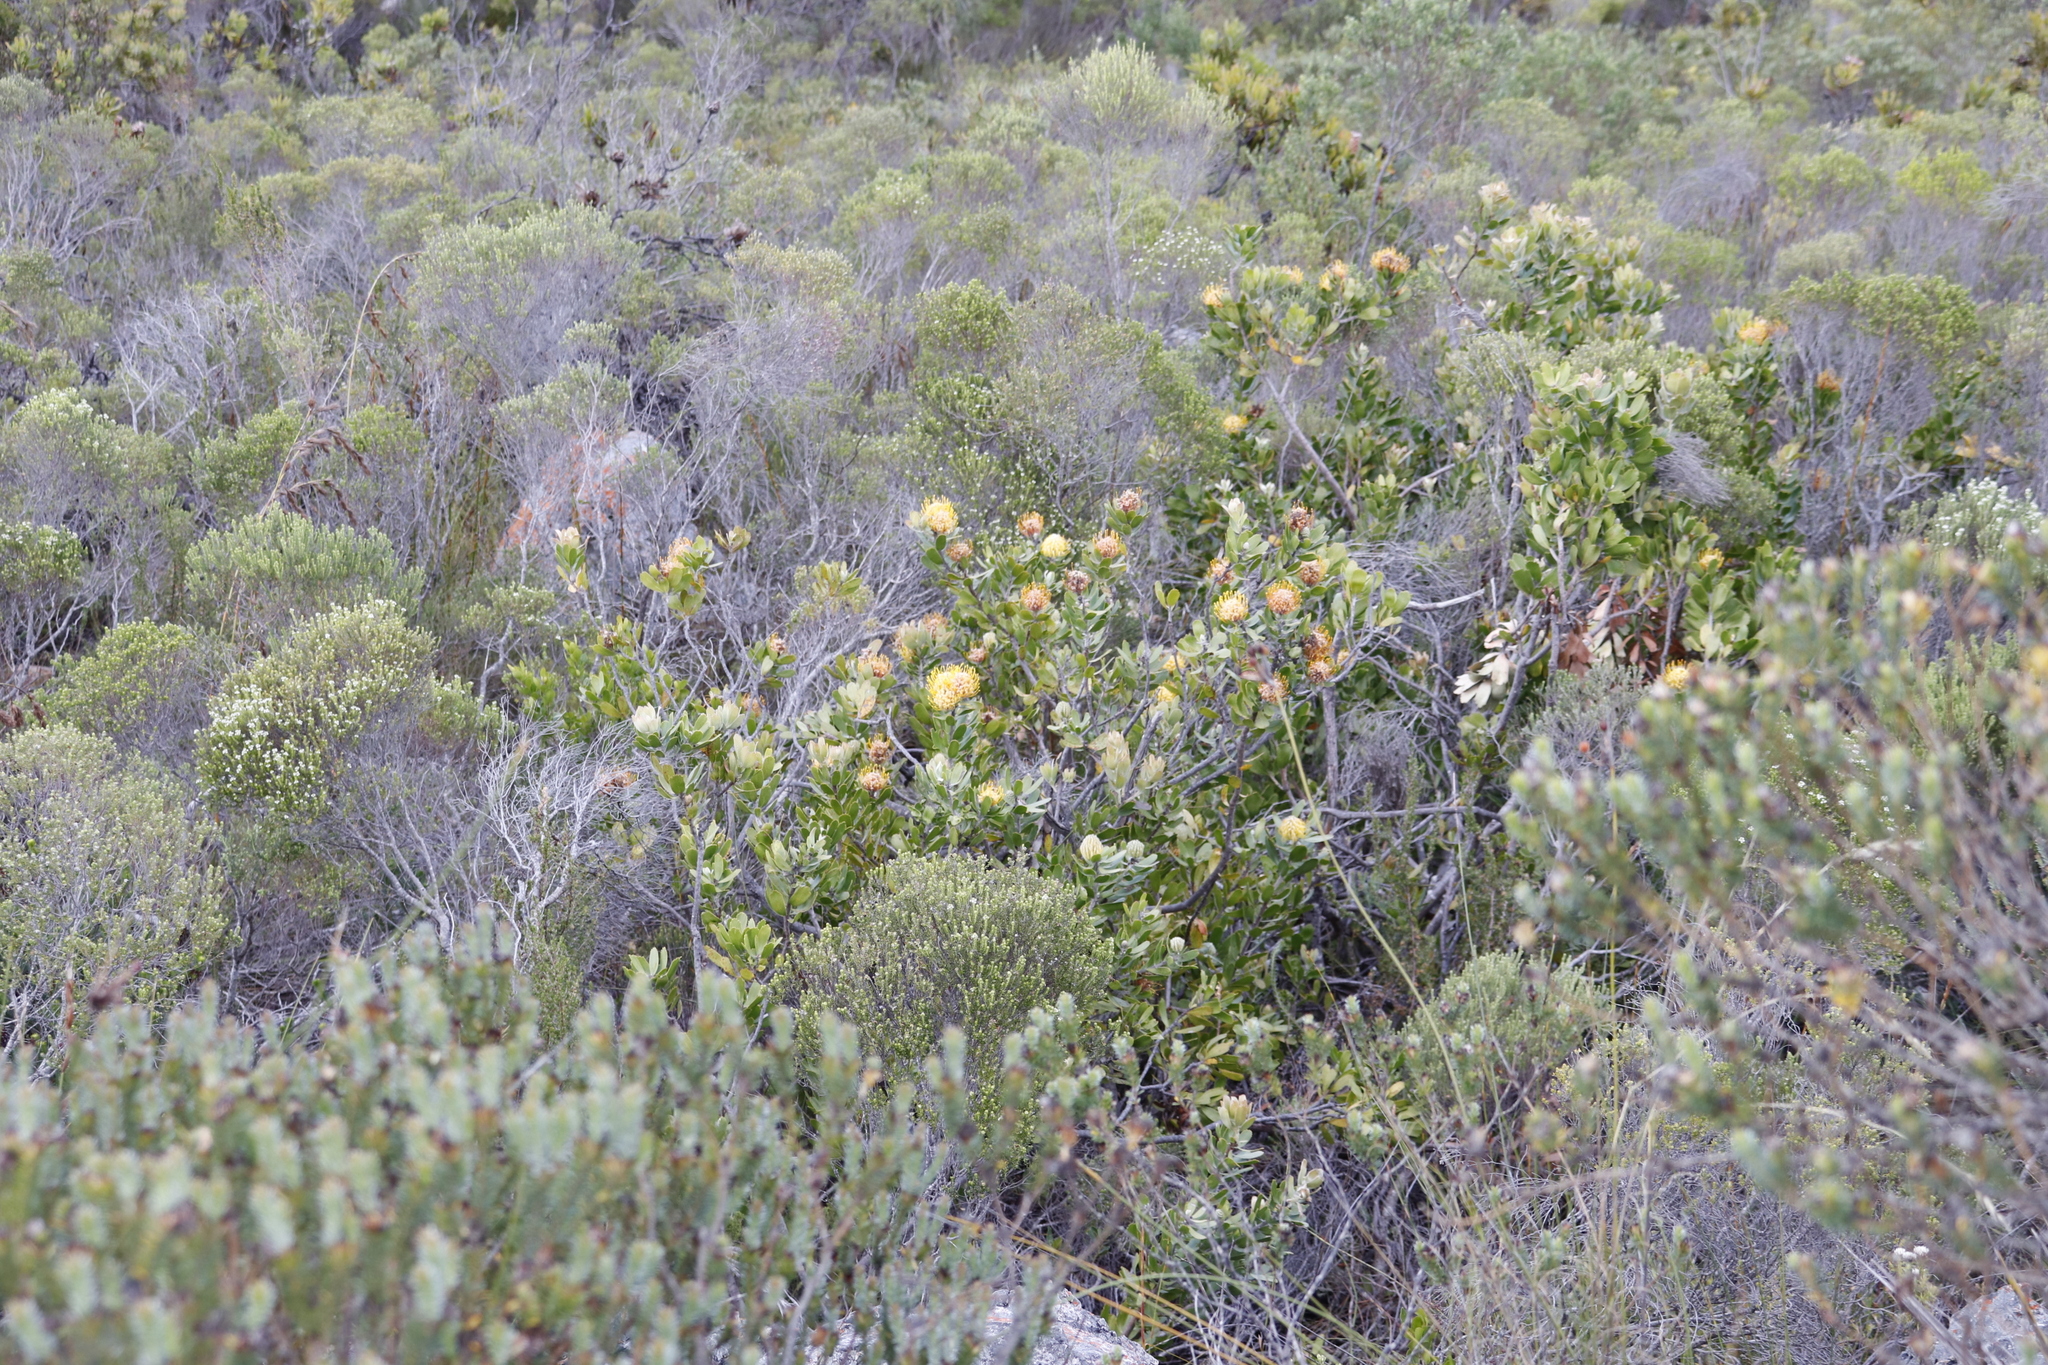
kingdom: Plantae
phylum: Tracheophyta
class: Magnoliopsida
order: Proteales
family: Proteaceae
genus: Leucospermum
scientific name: Leucospermum cuneiforme
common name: Common pincushion
